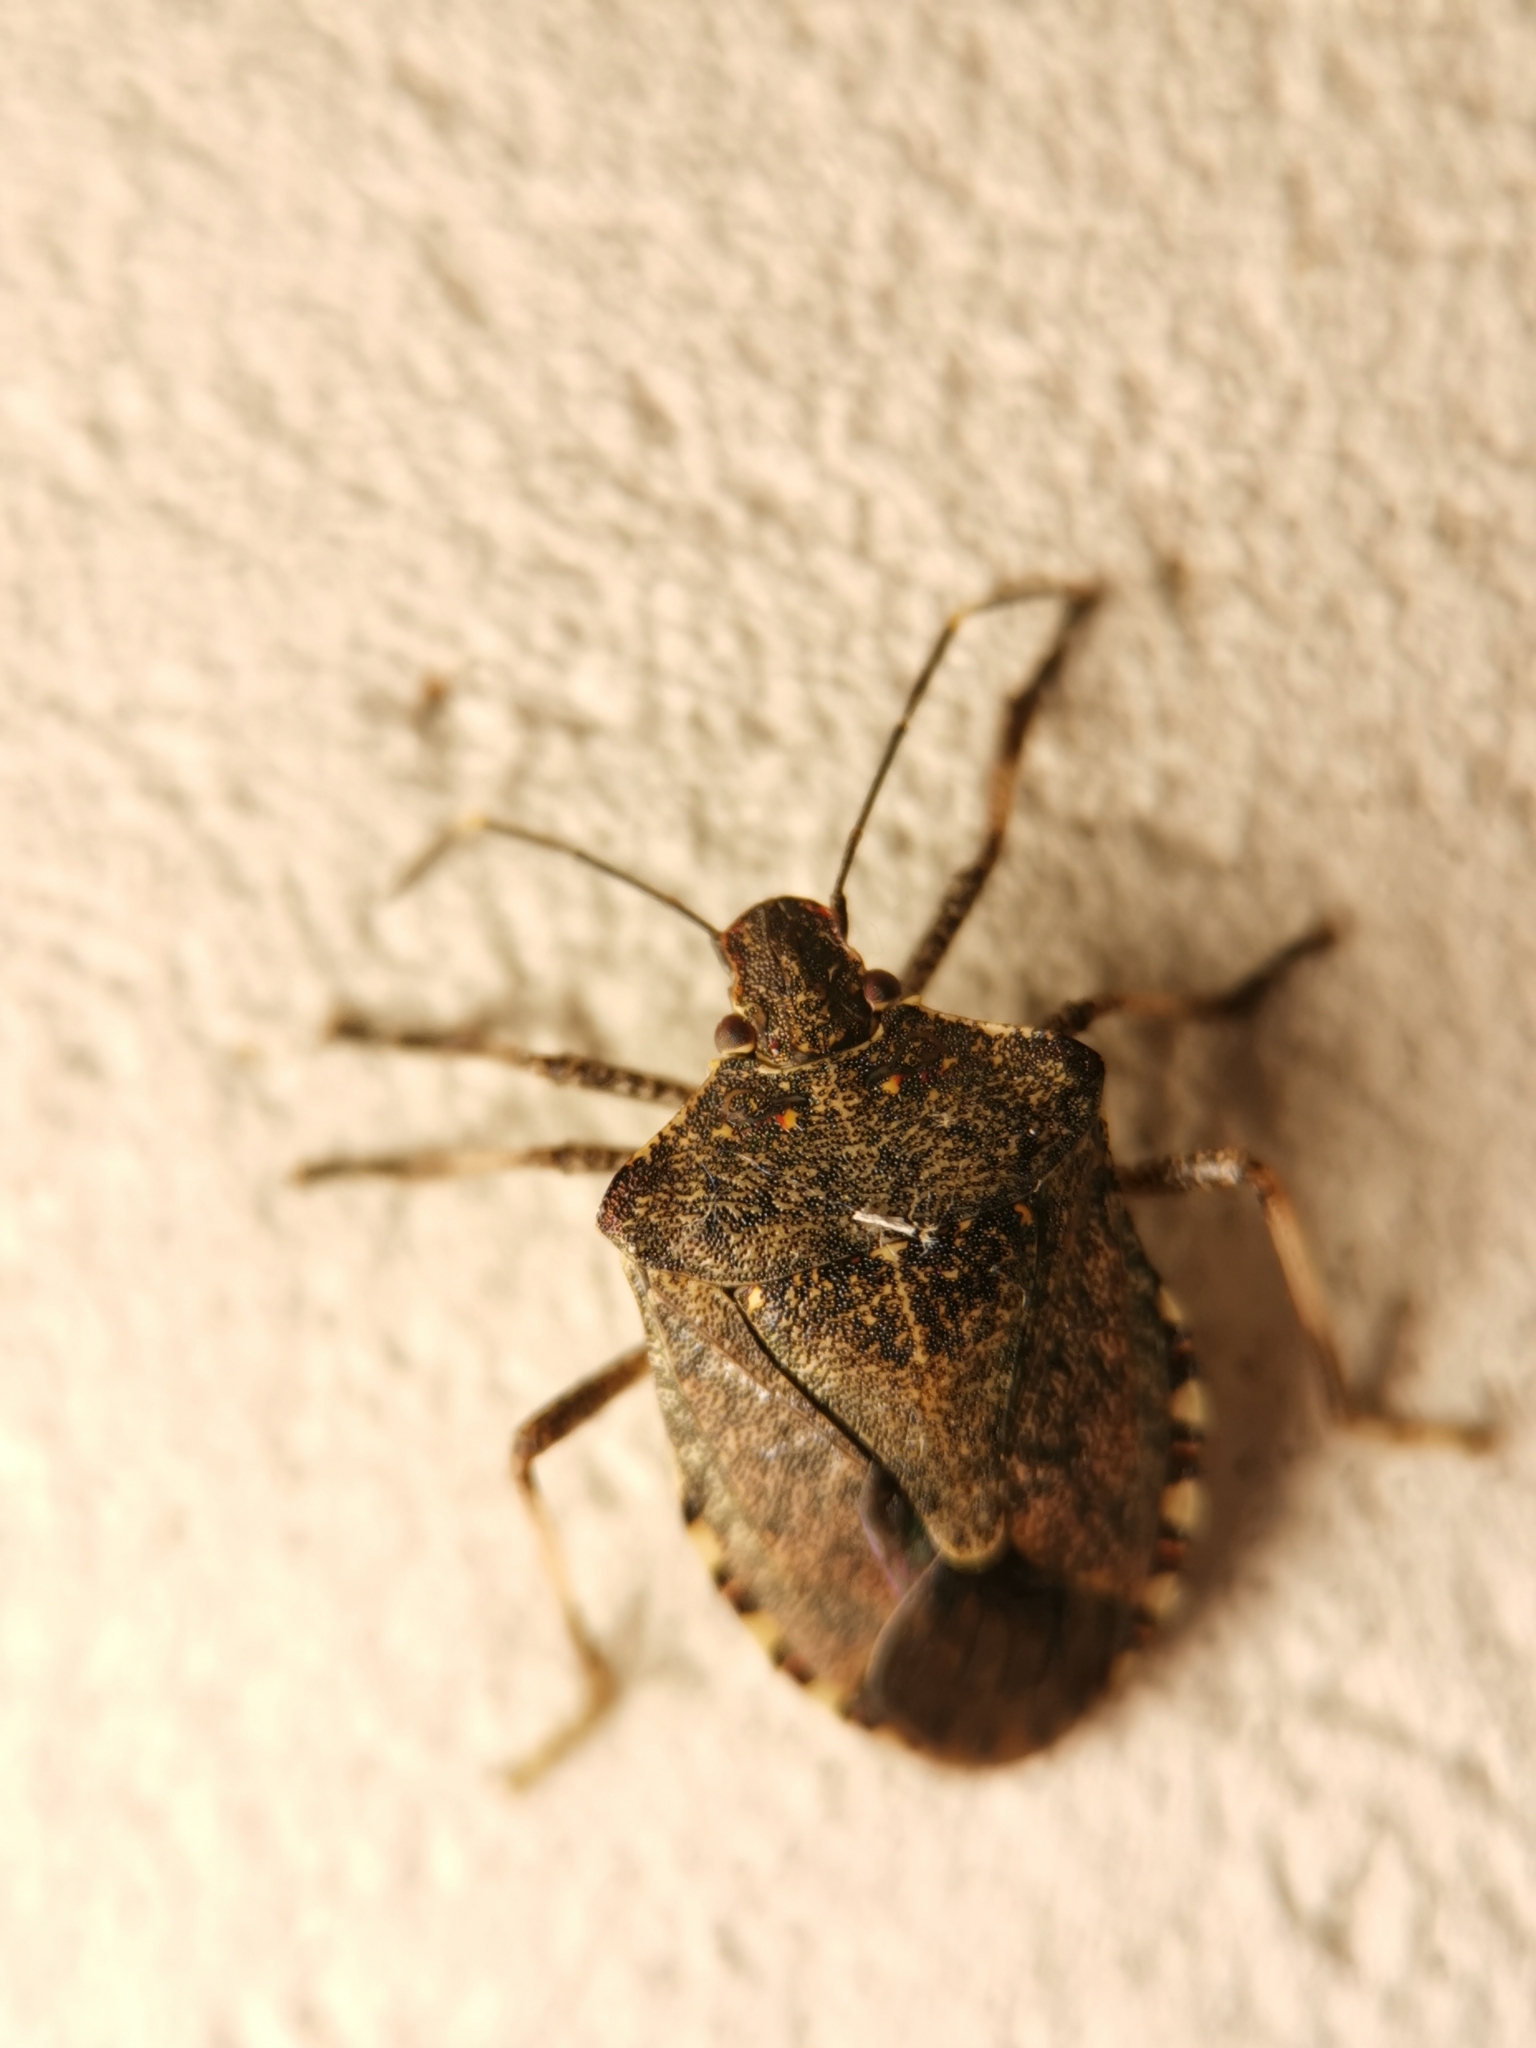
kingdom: Animalia
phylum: Arthropoda
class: Insecta
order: Hemiptera
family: Pentatomidae
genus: Halyomorpha
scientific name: Halyomorpha halys
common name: Brown marmorated stink bug
